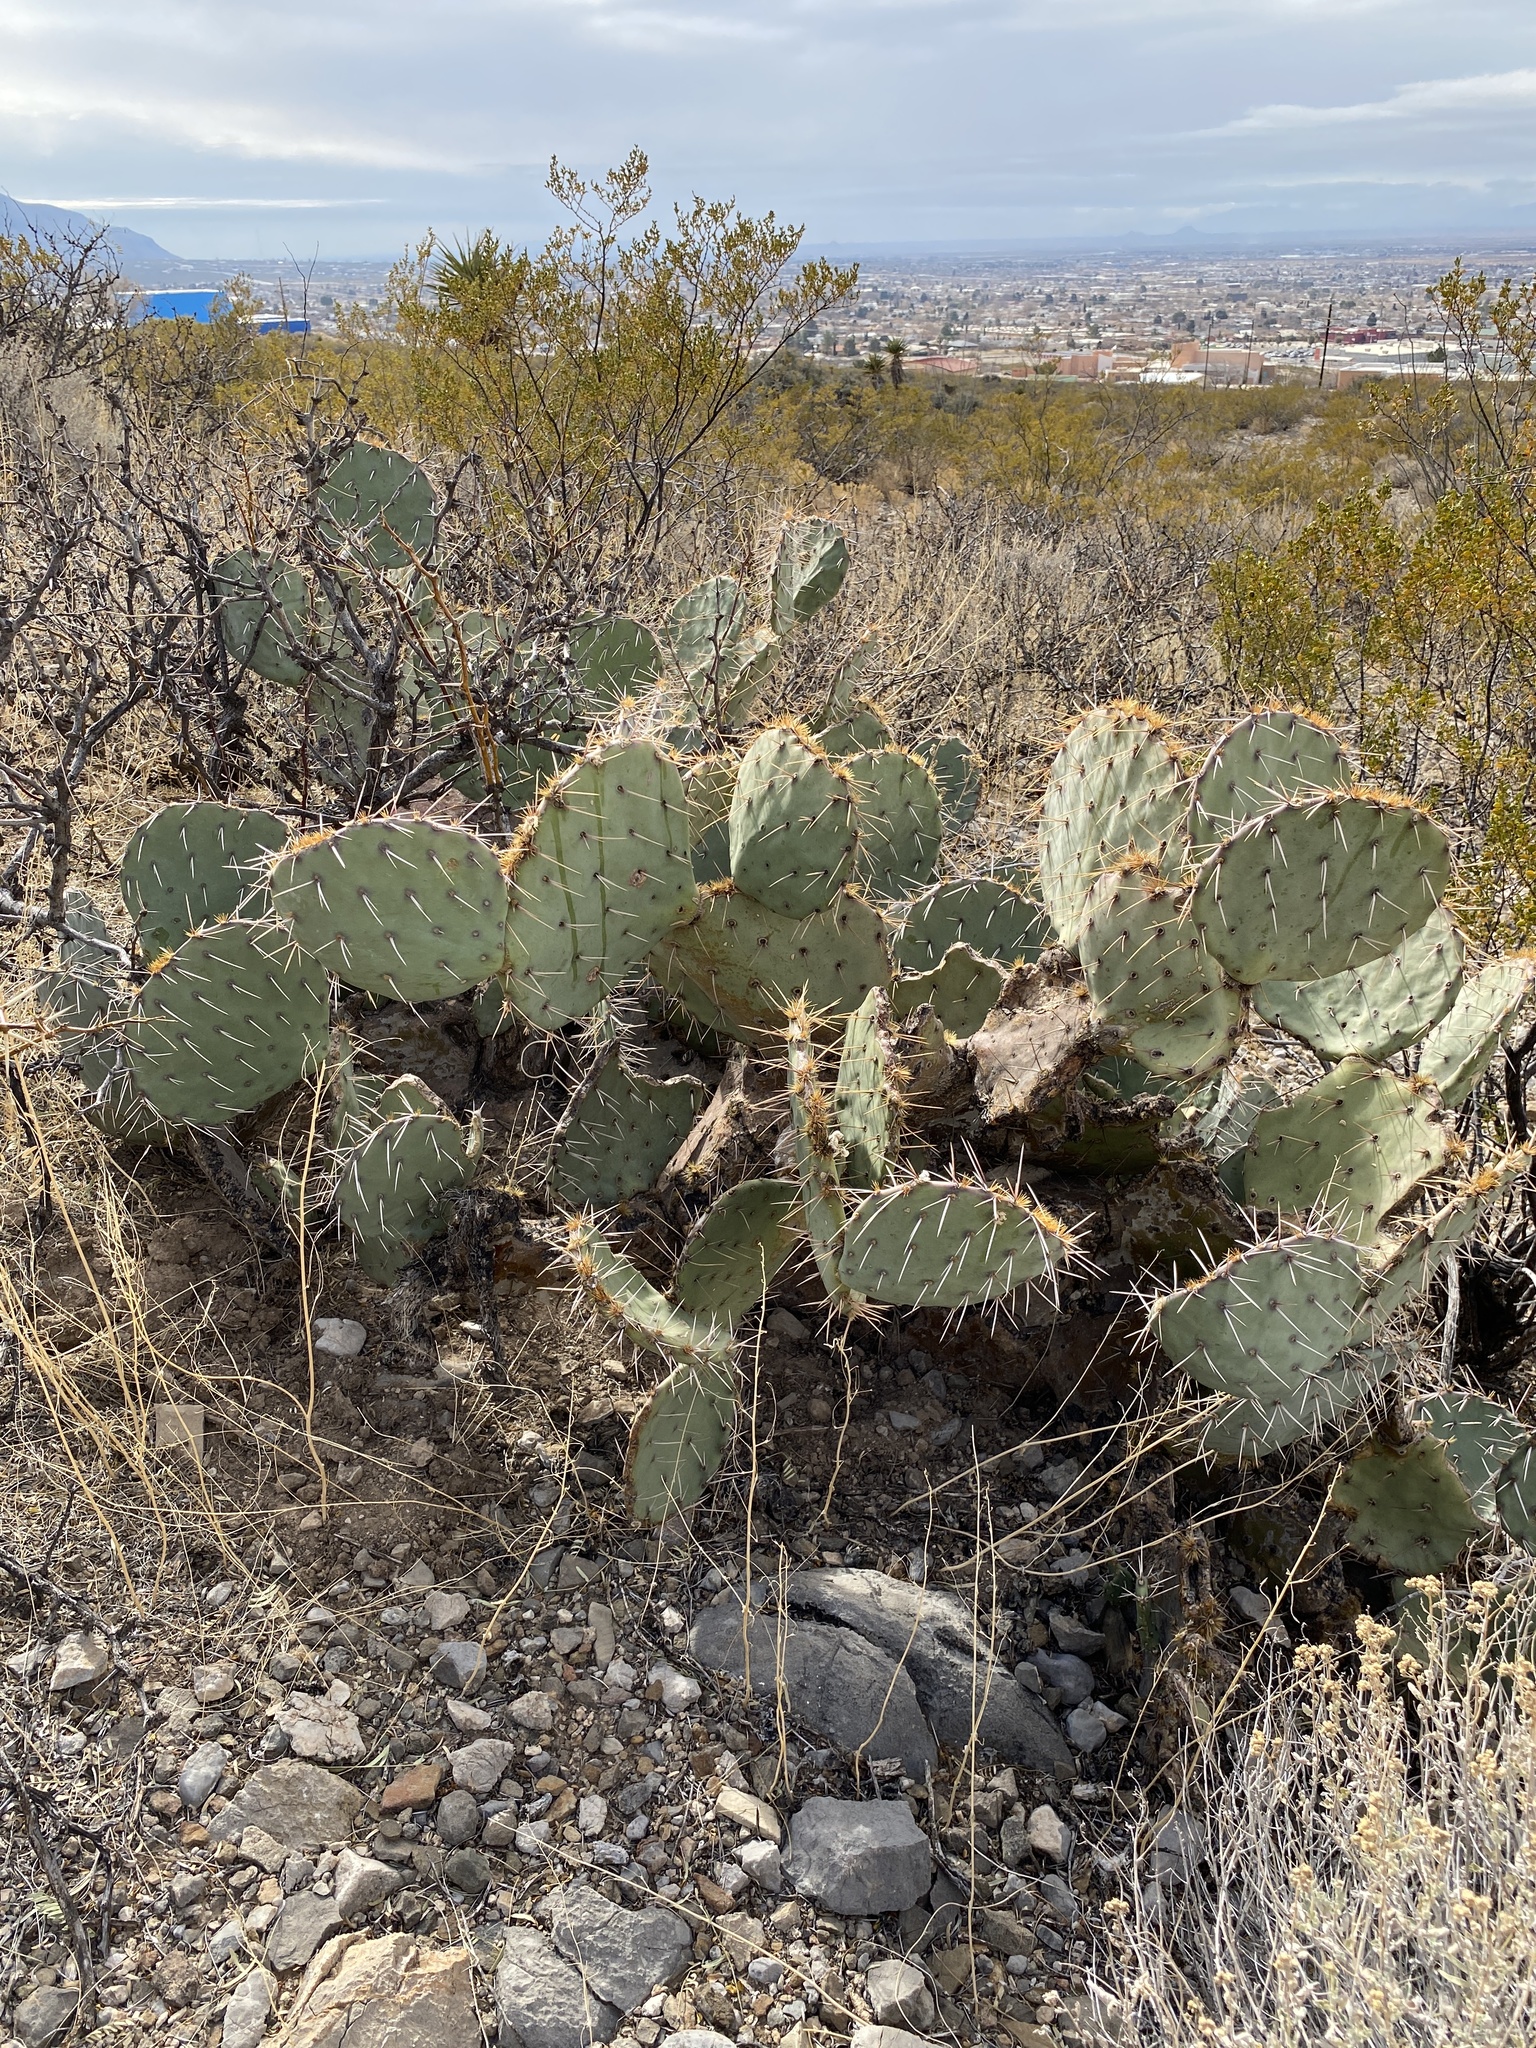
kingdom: Plantae
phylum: Tracheophyta
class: Magnoliopsida
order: Caryophyllales
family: Cactaceae
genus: Opuntia
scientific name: Opuntia engelmannii
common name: Cactus-apple
